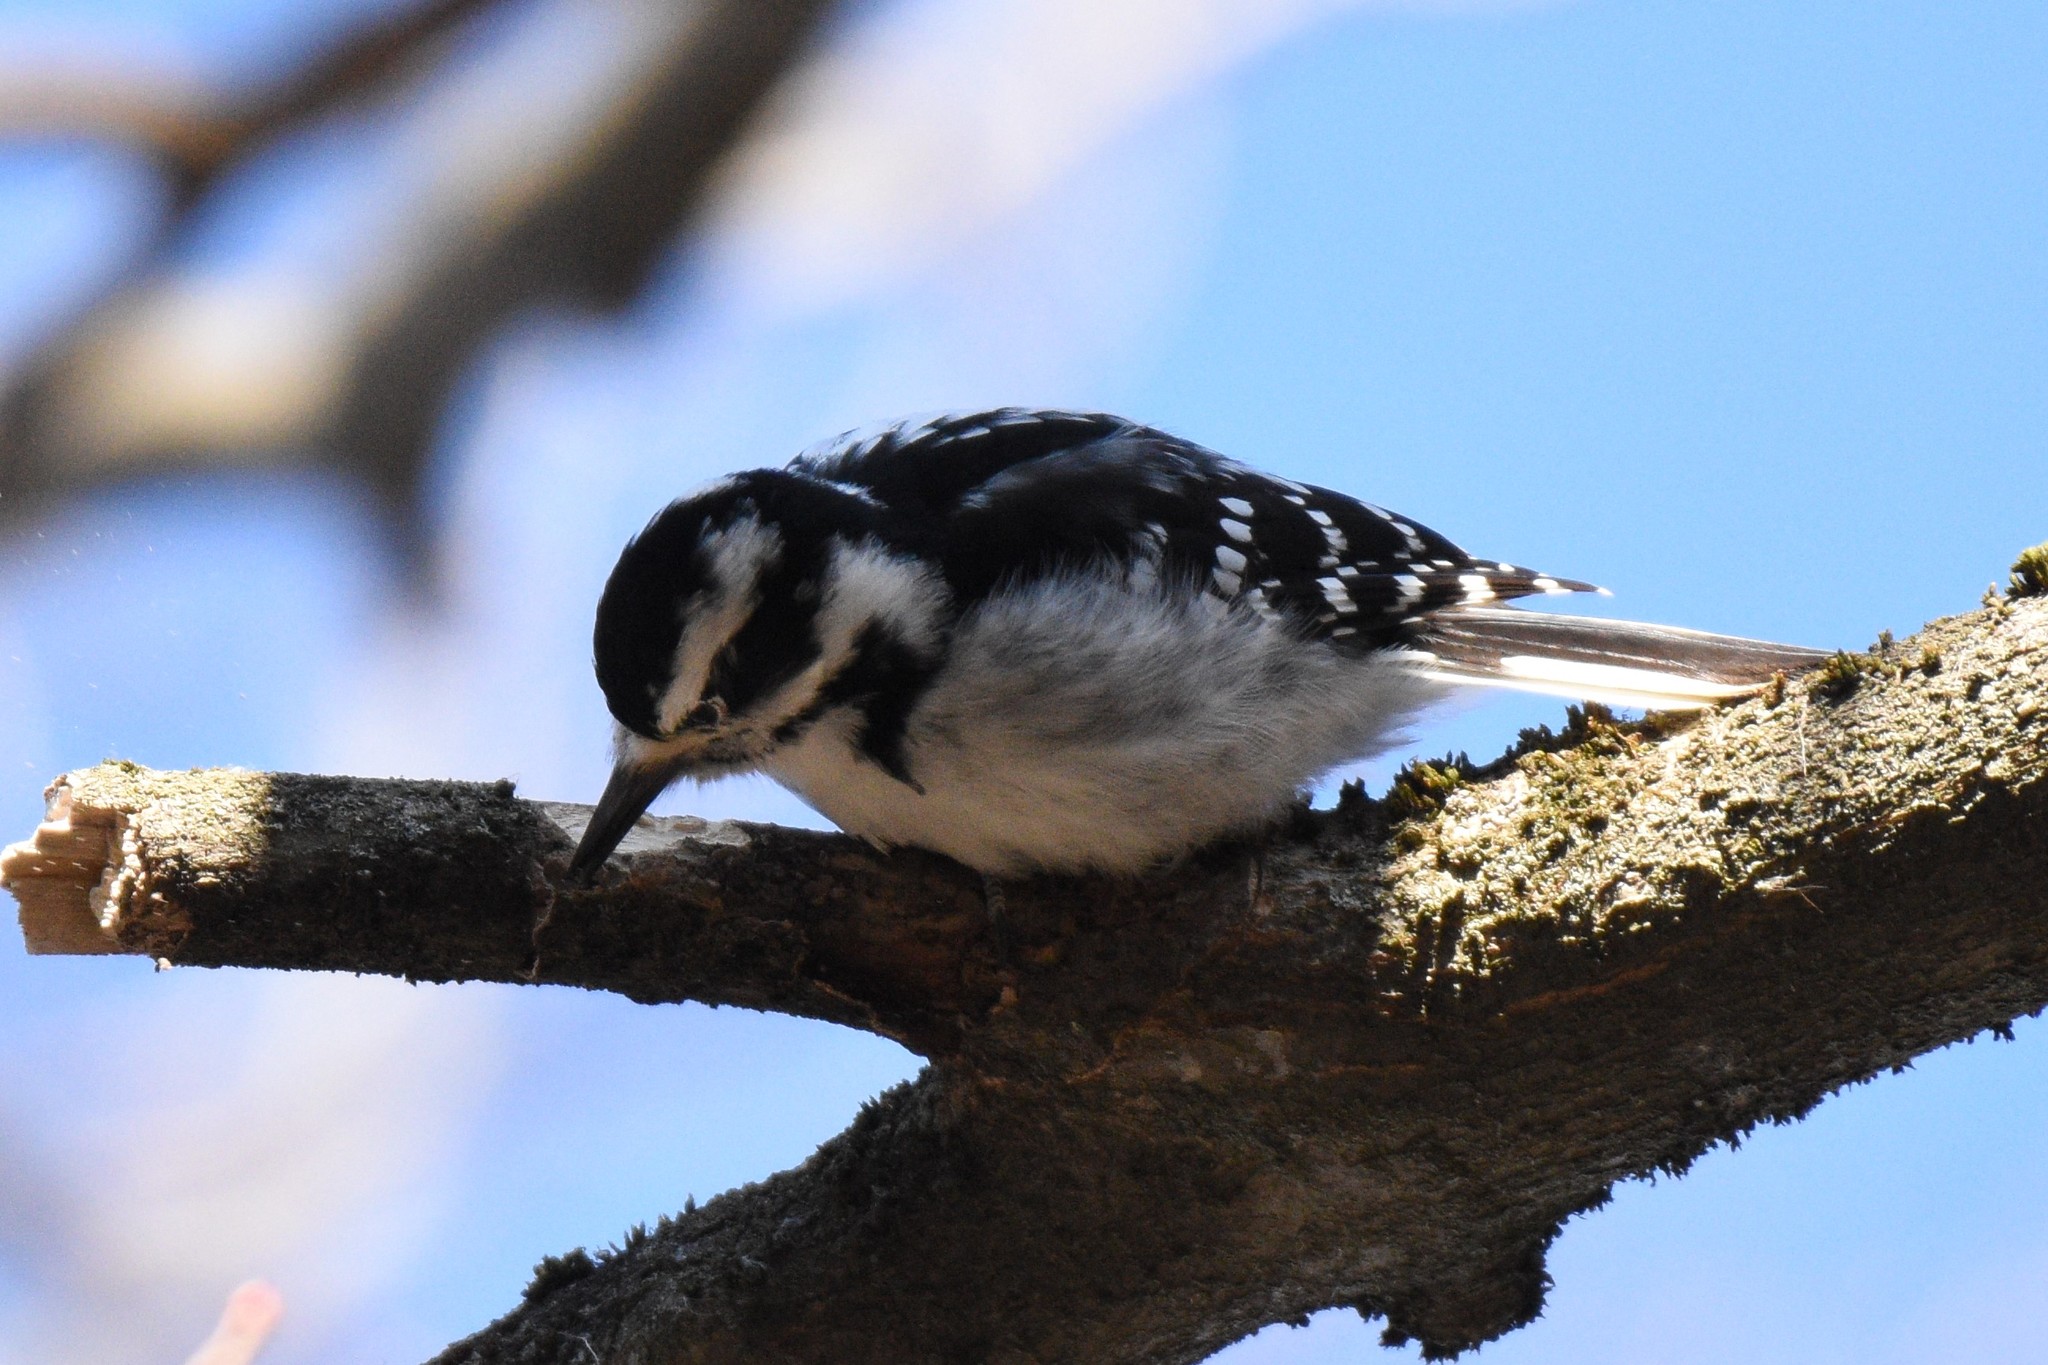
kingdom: Animalia
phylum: Chordata
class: Aves
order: Piciformes
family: Picidae
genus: Leuconotopicus
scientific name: Leuconotopicus villosus
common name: Hairy woodpecker
